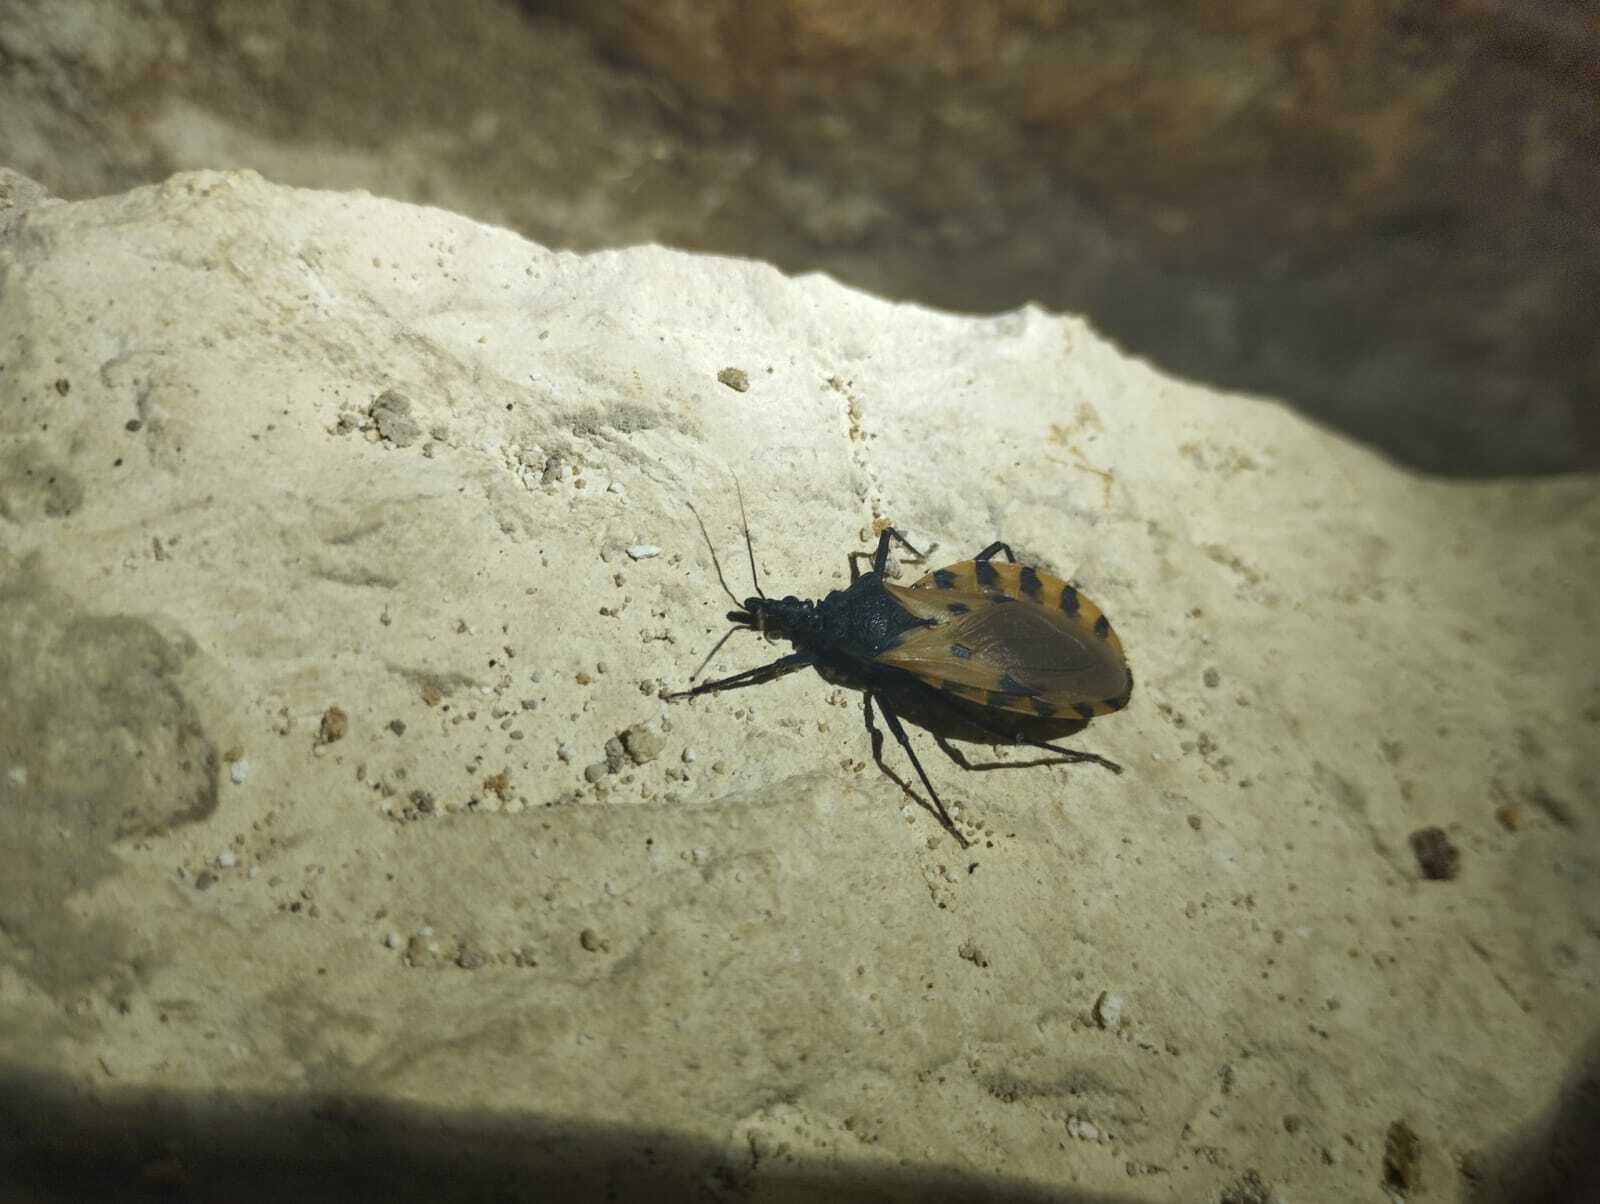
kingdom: Animalia
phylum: Arthropoda
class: Insecta
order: Hemiptera
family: Reduviidae
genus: Meccus
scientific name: Meccus dimidiatus
